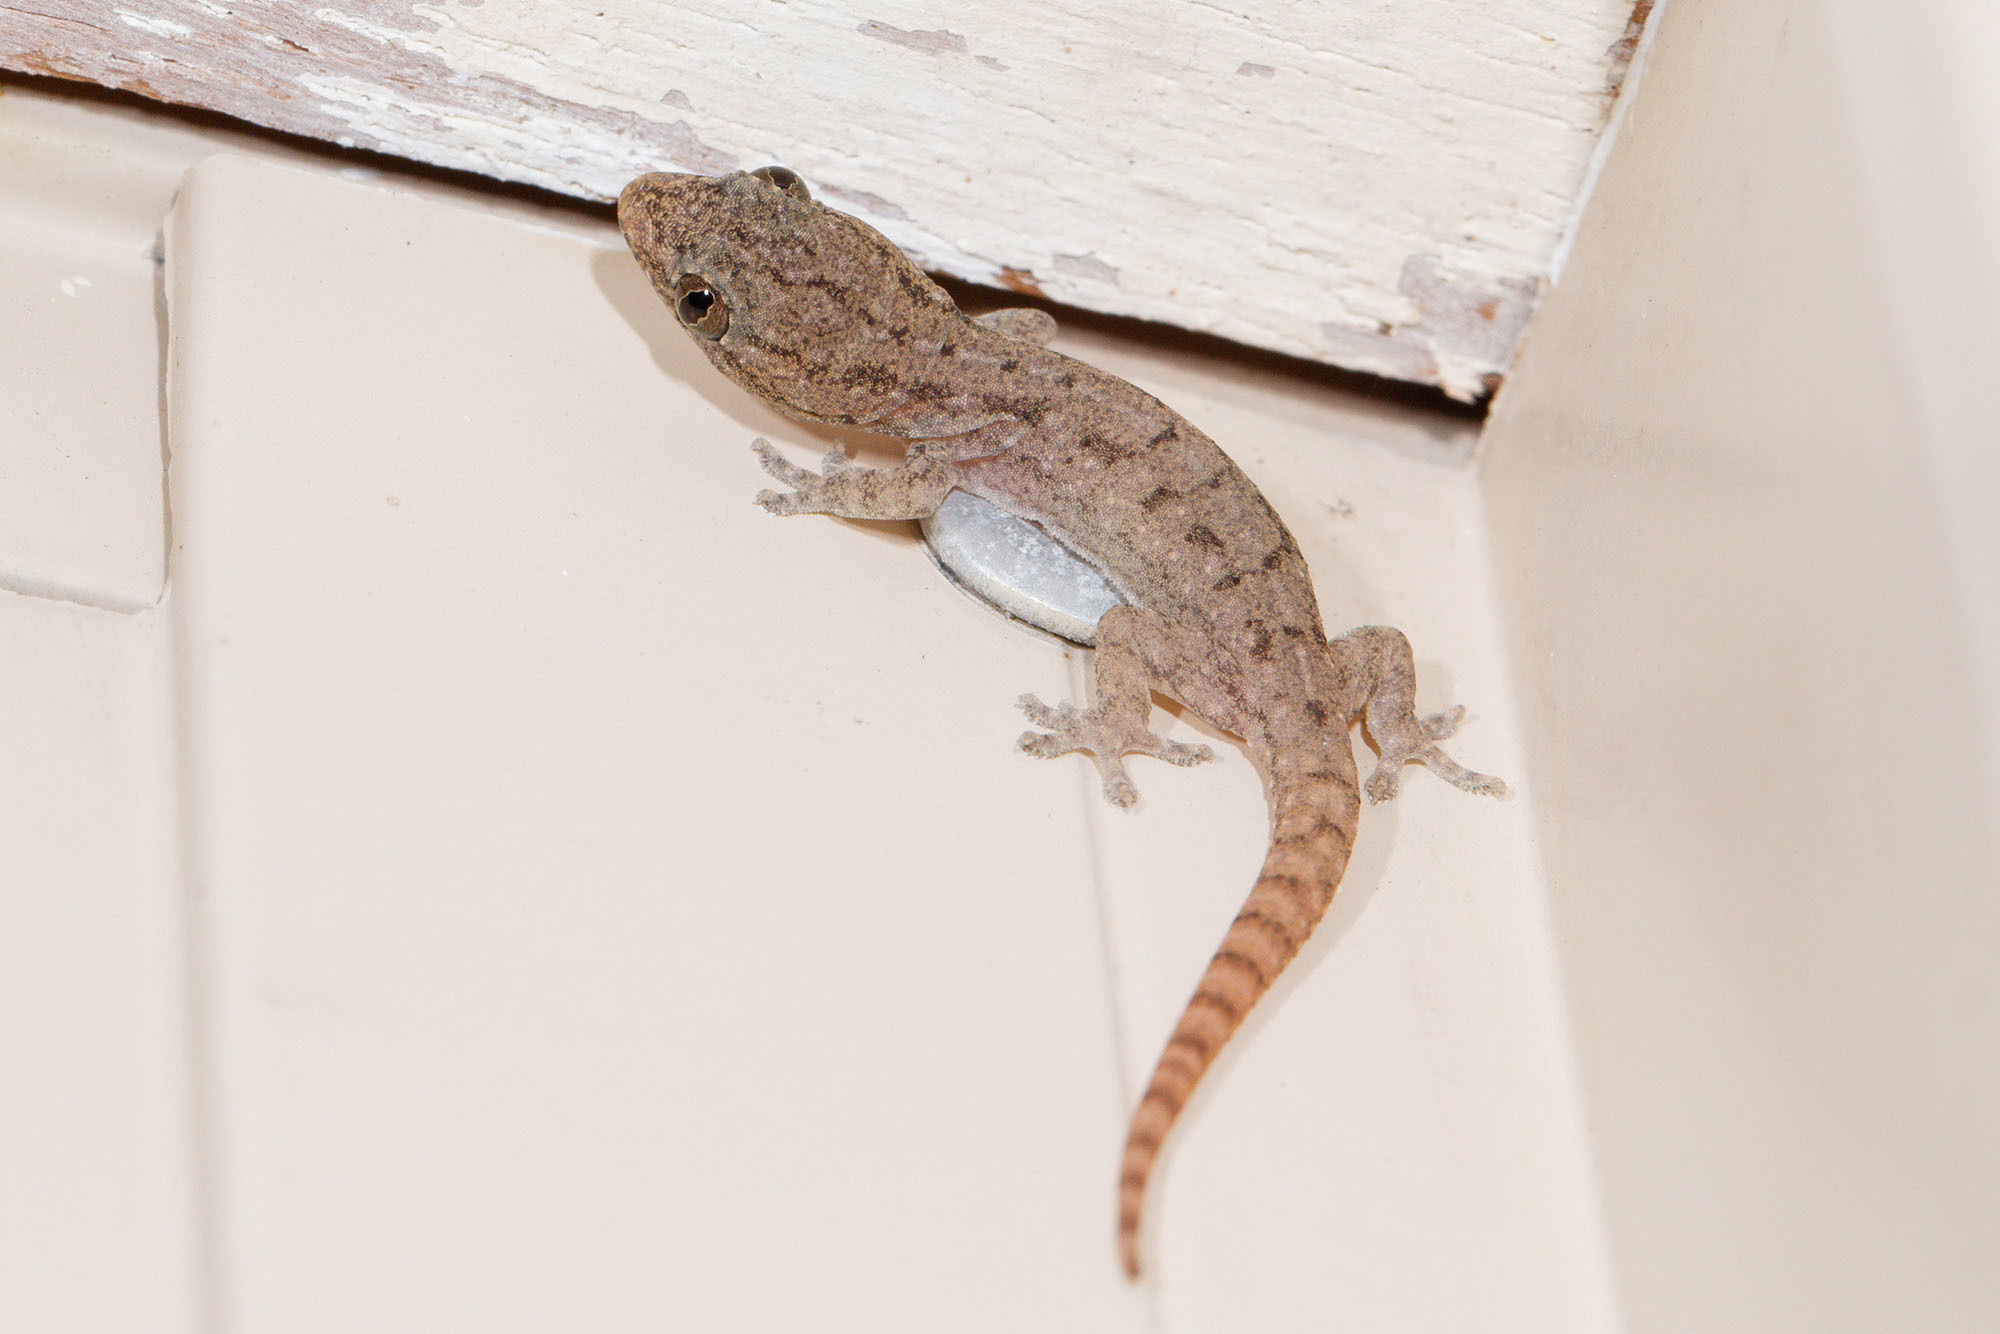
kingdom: Animalia
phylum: Chordata
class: Squamata
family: Gekkonidae
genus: Hemidactylus
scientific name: Hemidactylus frenatus
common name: Common house gecko
